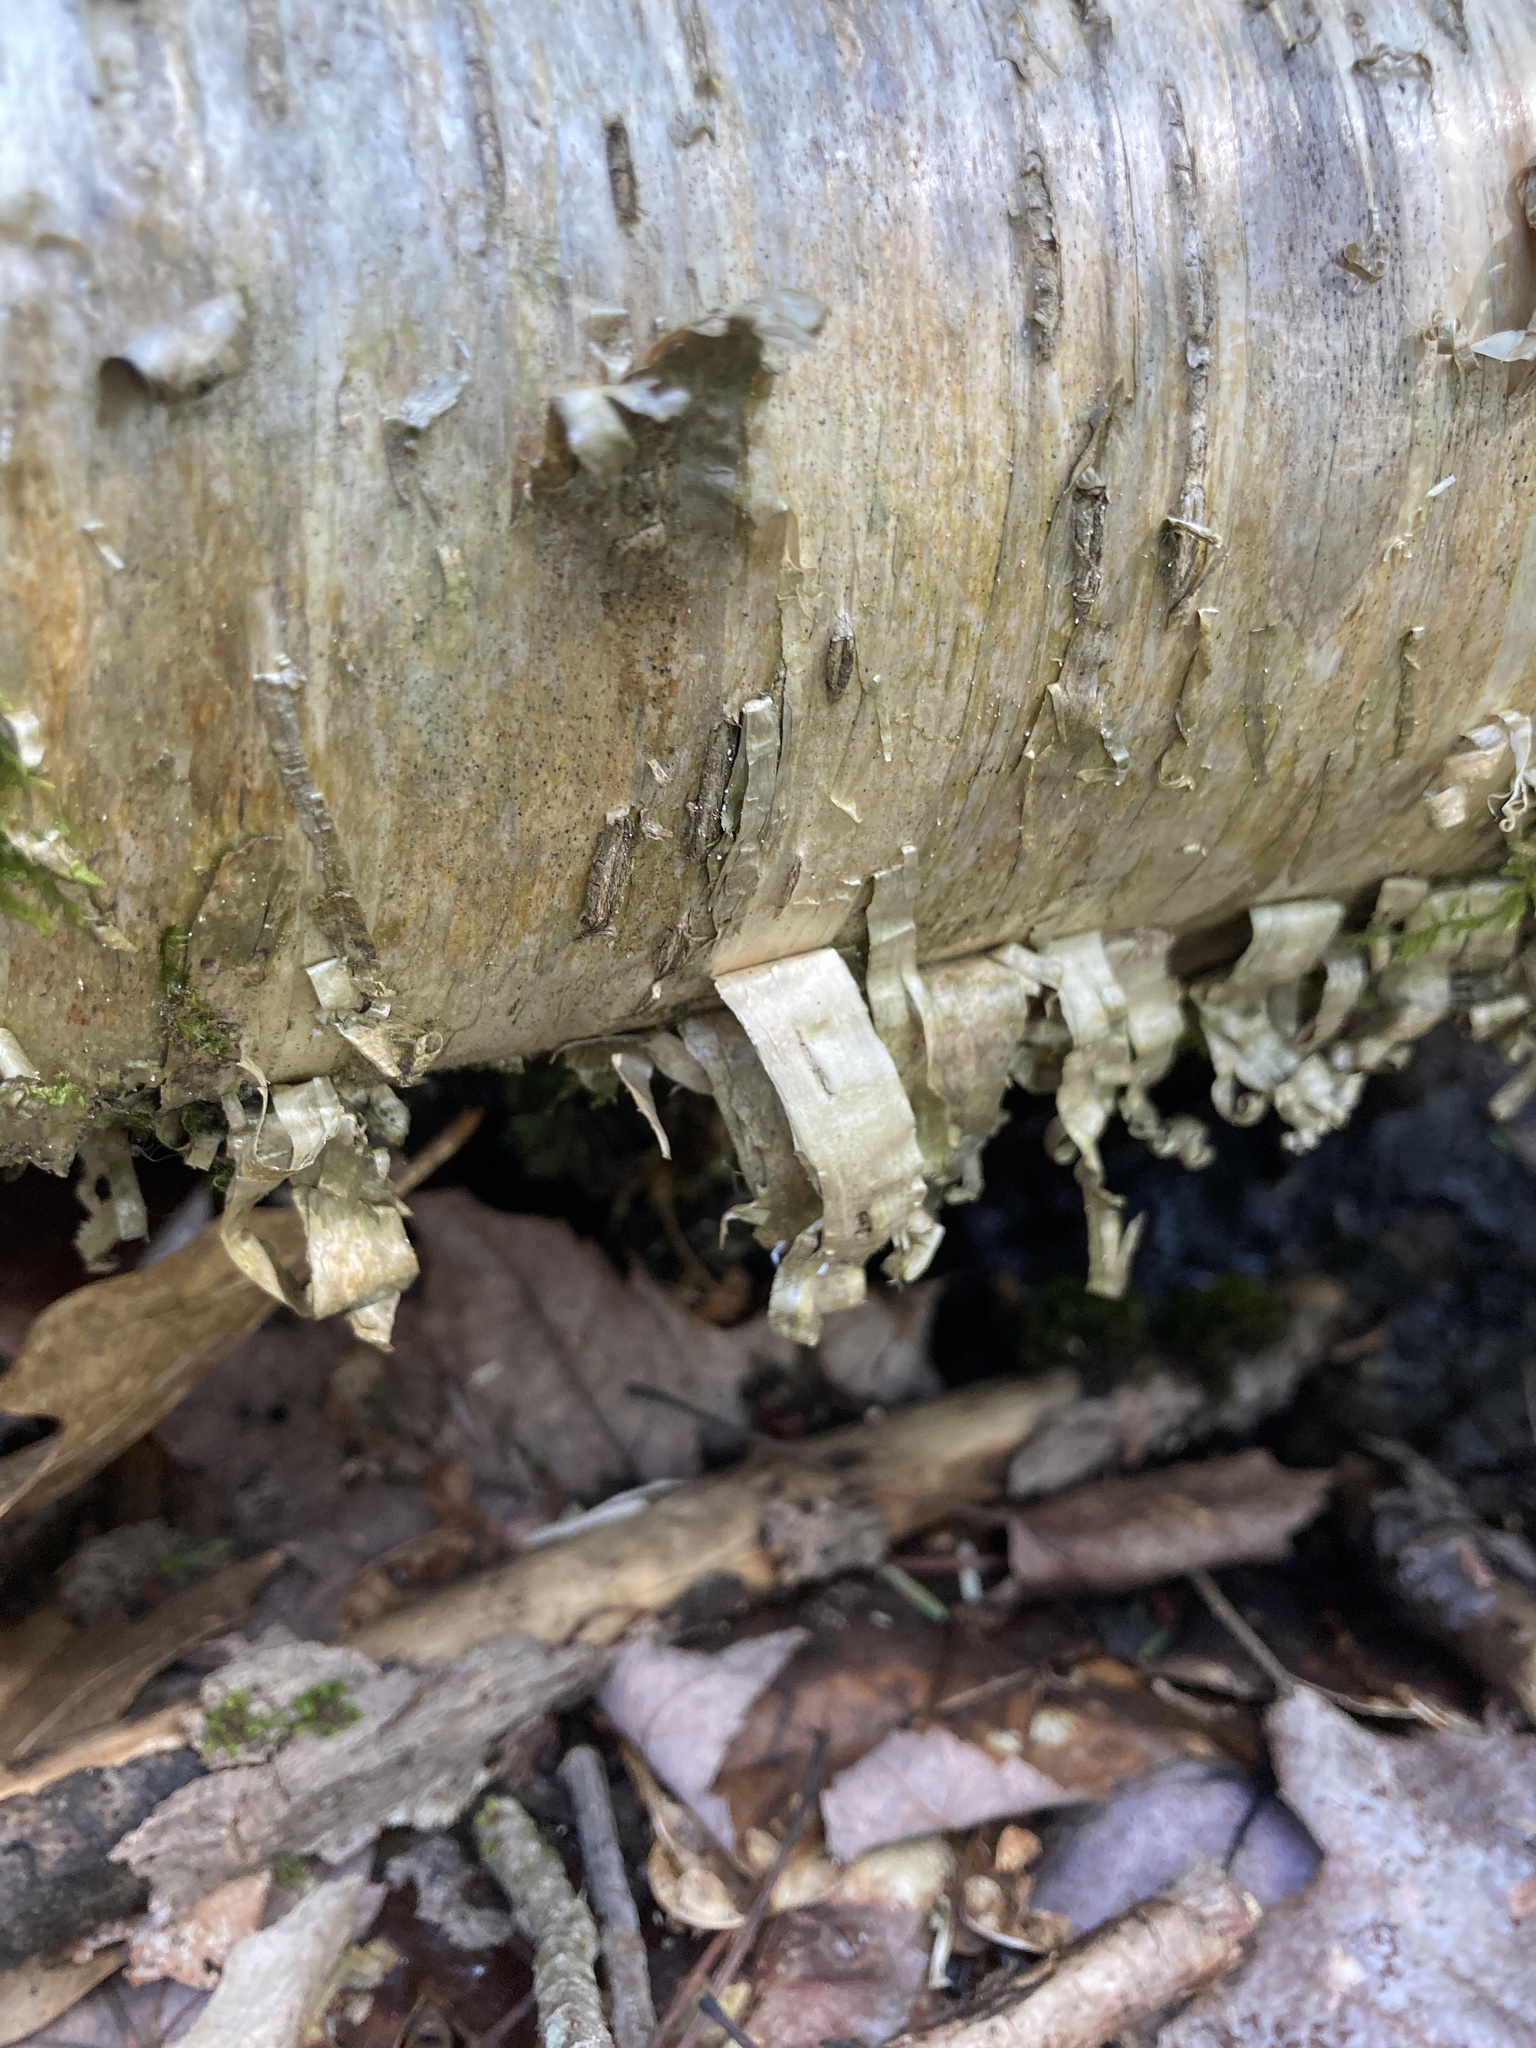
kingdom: Plantae
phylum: Tracheophyta
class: Magnoliopsida
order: Fagales
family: Betulaceae
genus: Betula
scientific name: Betula alleghaniensis
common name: Yellow birch
